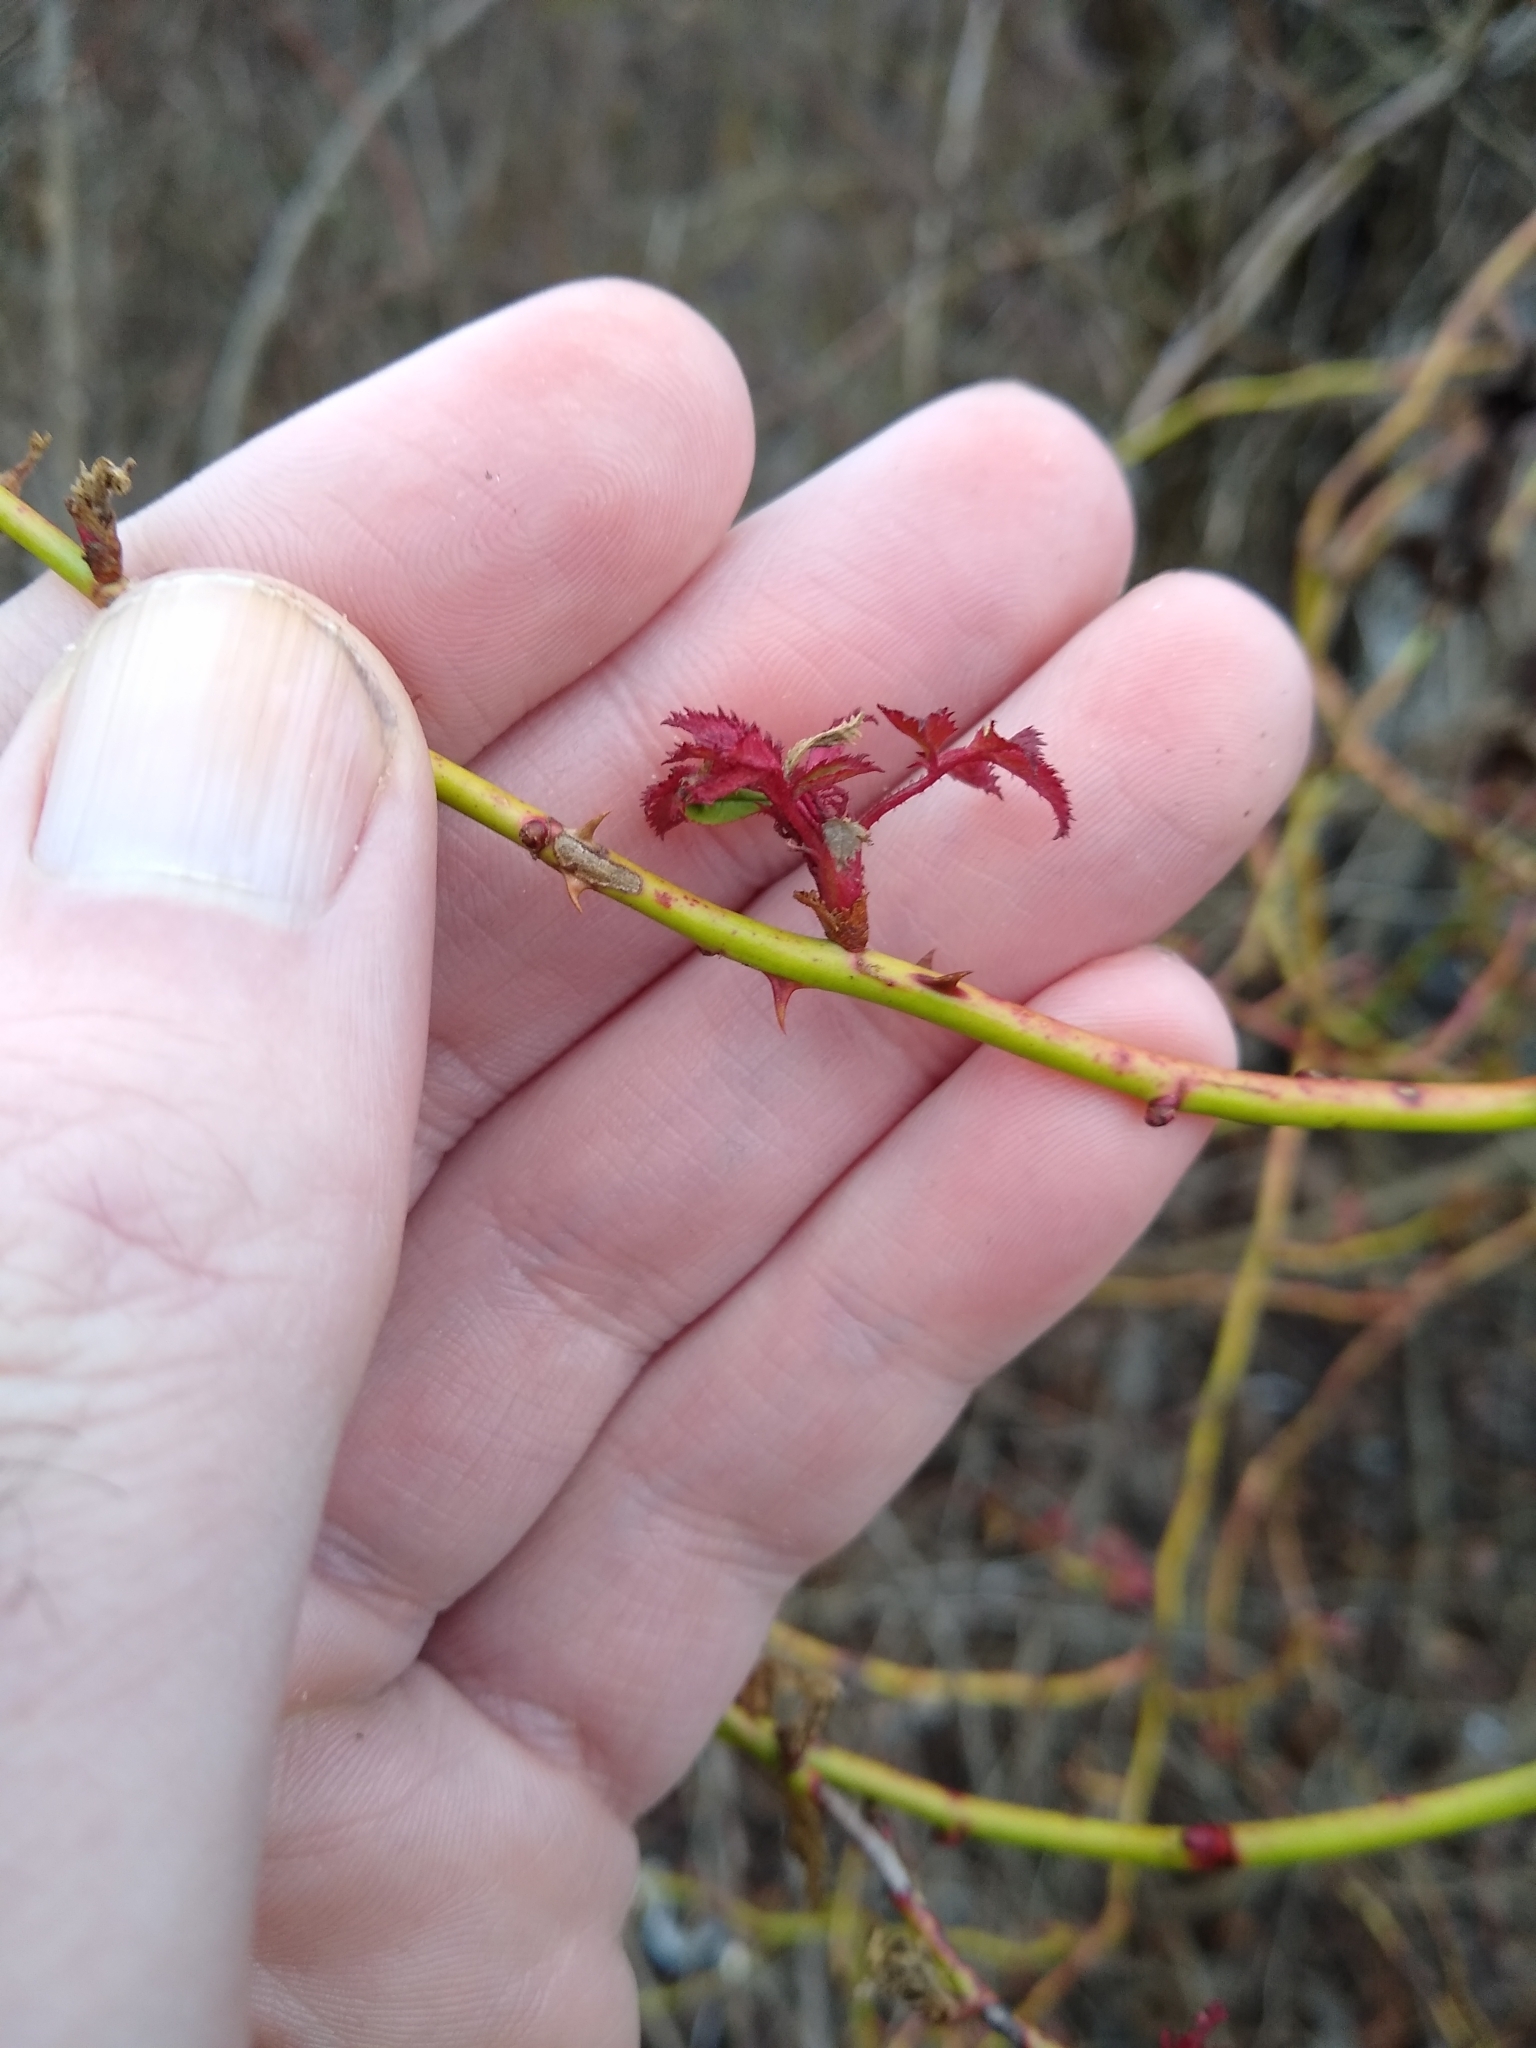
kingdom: Viruses
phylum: Negarnaviricota
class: Ellioviricetes
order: Bunyavirales
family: Fimoviridae
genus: Emaravirus
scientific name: Emaravirus rosae
